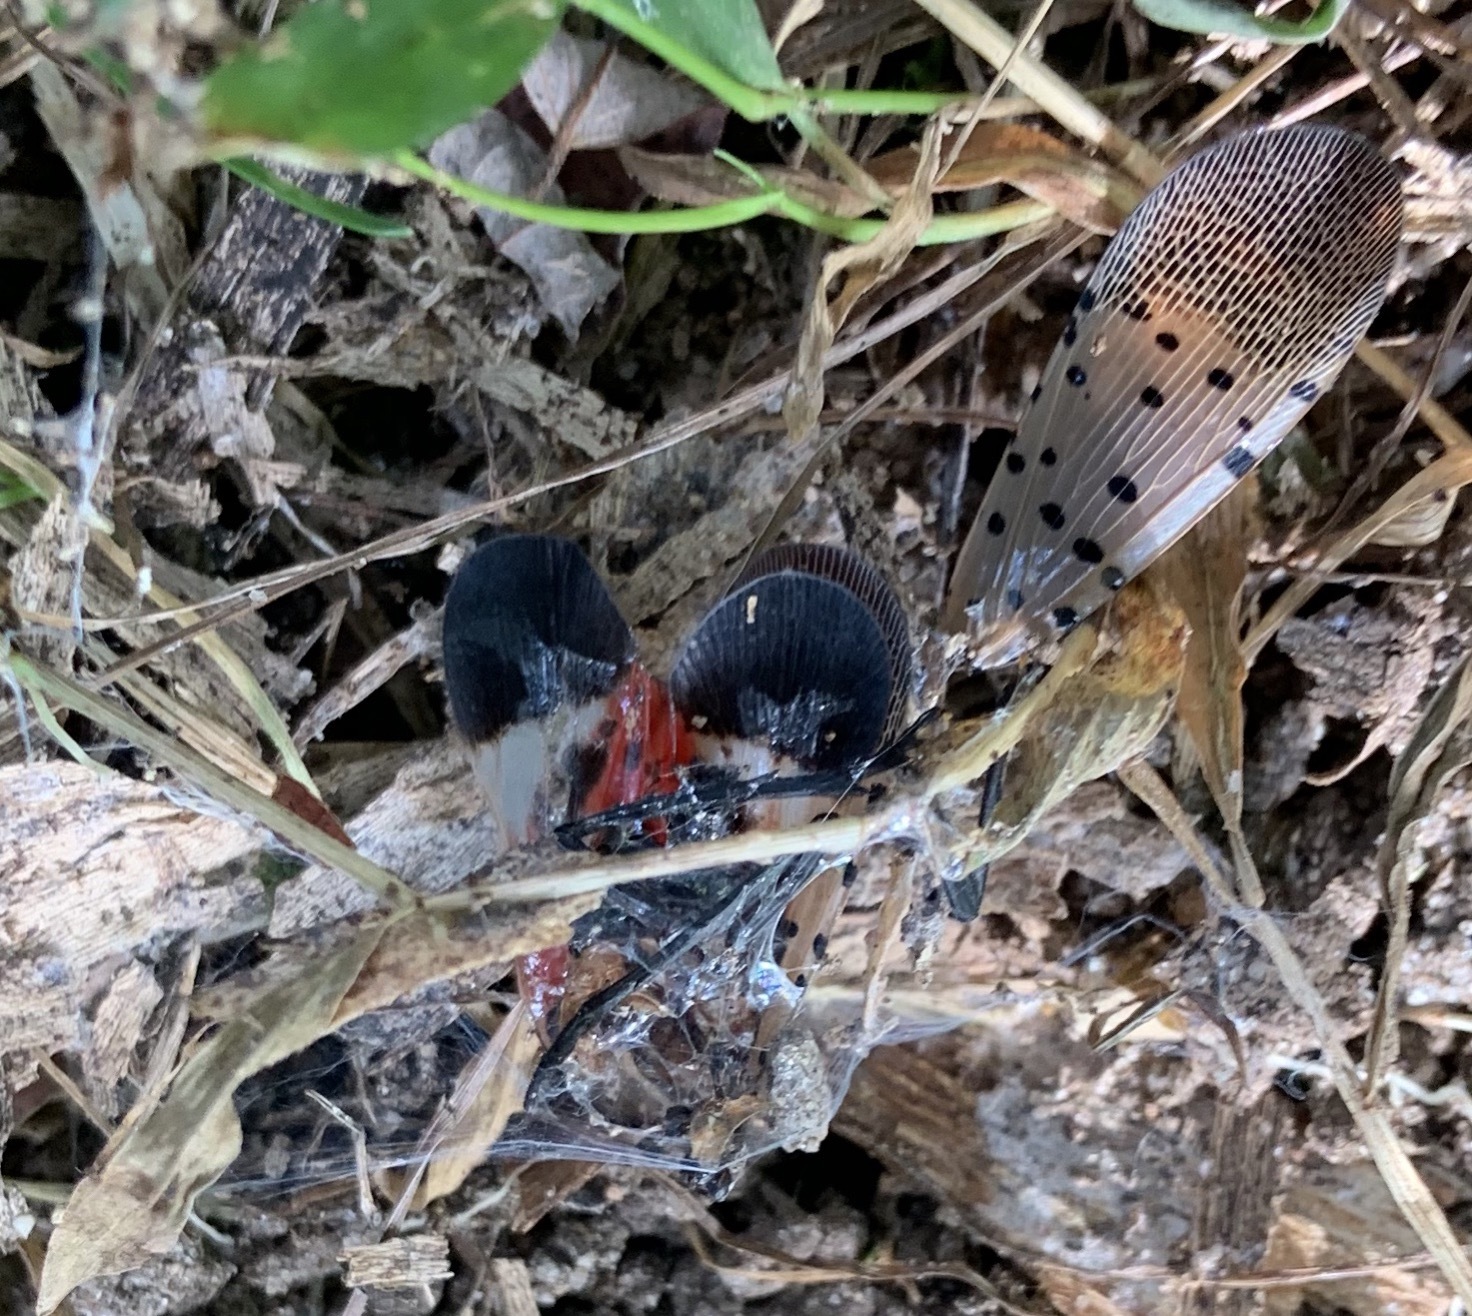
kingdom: Animalia
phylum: Arthropoda
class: Insecta
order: Hemiptera
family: Fulgoridae
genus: Lycorma
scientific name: Lycorma delicatula
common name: Spotted lanternfly
